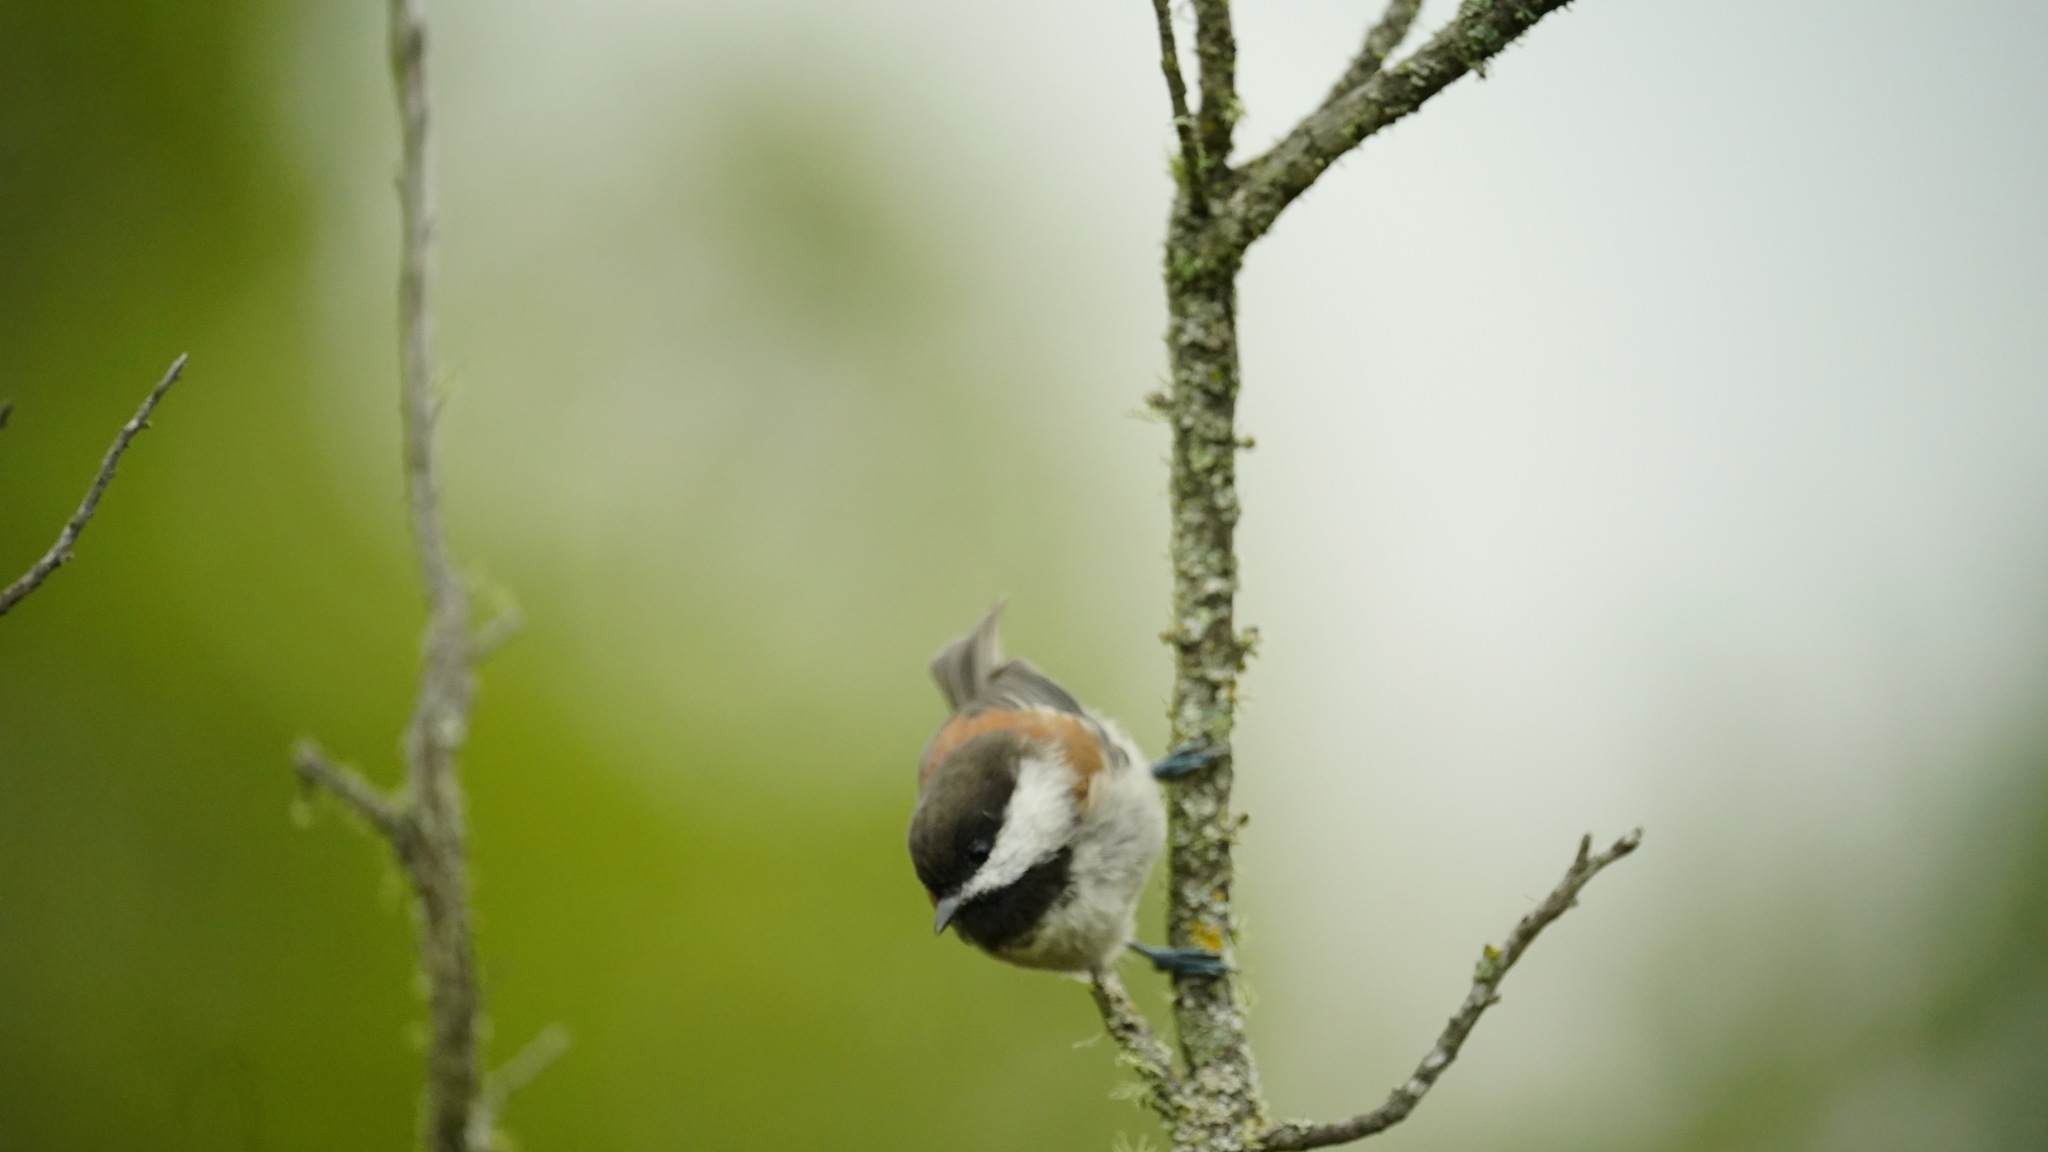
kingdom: Animalia
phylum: Chordata
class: Aves
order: Passeriformes
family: Paridae
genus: Poecile
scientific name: Poecile rufescens
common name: Chestnut-backed chickadee
